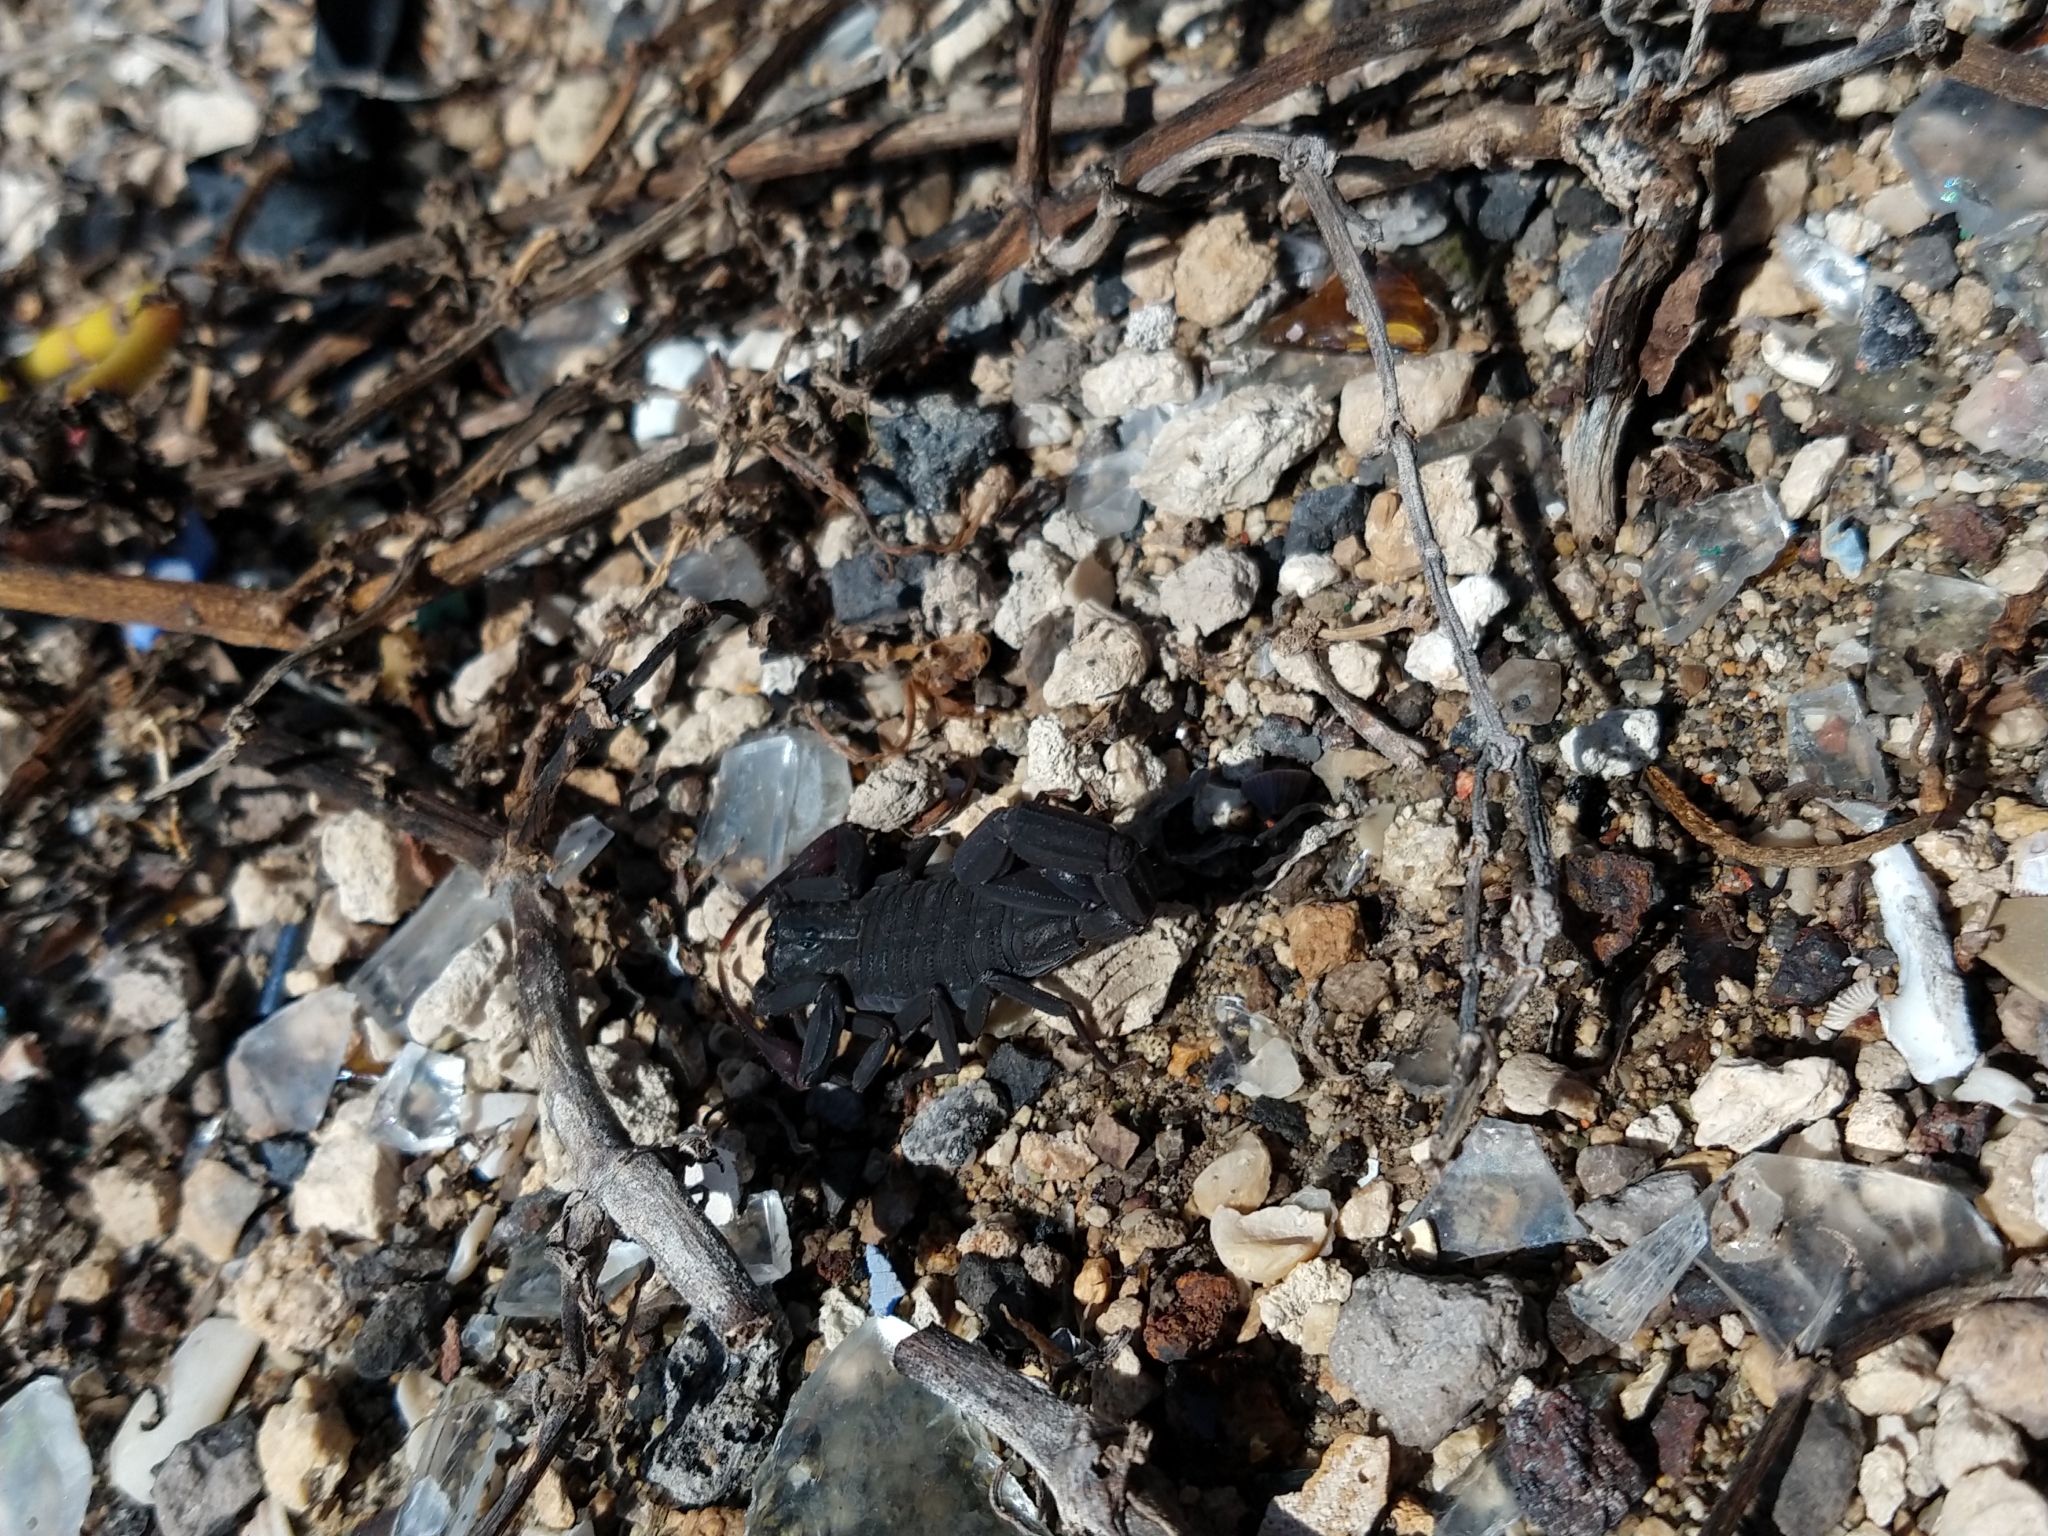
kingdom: Animalia
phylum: Arthropoda
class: Arachnida
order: Scorpiones
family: Buthidae
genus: Centruroides
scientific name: Centruroides gracilis
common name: Scorpions
